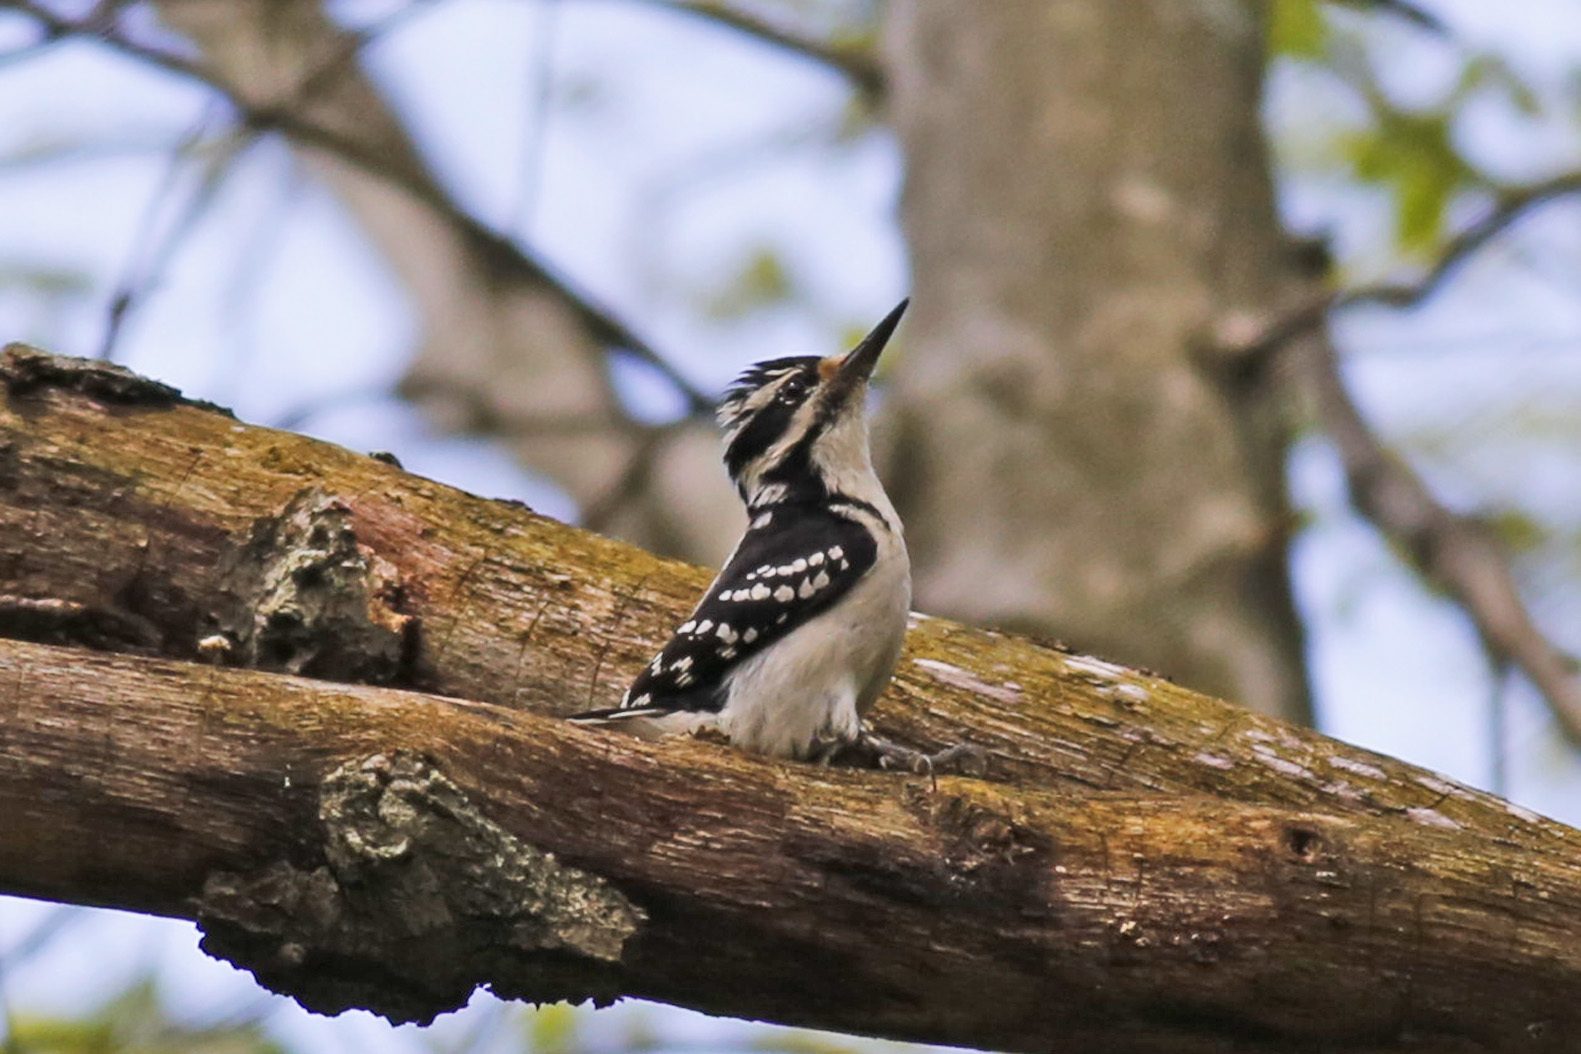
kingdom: Animalia
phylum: Chordata
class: Aves
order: Piciformes
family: Picidae
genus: Leuconotopicus
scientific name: Leuconotopicus villosus
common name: Hairy woodpecker
